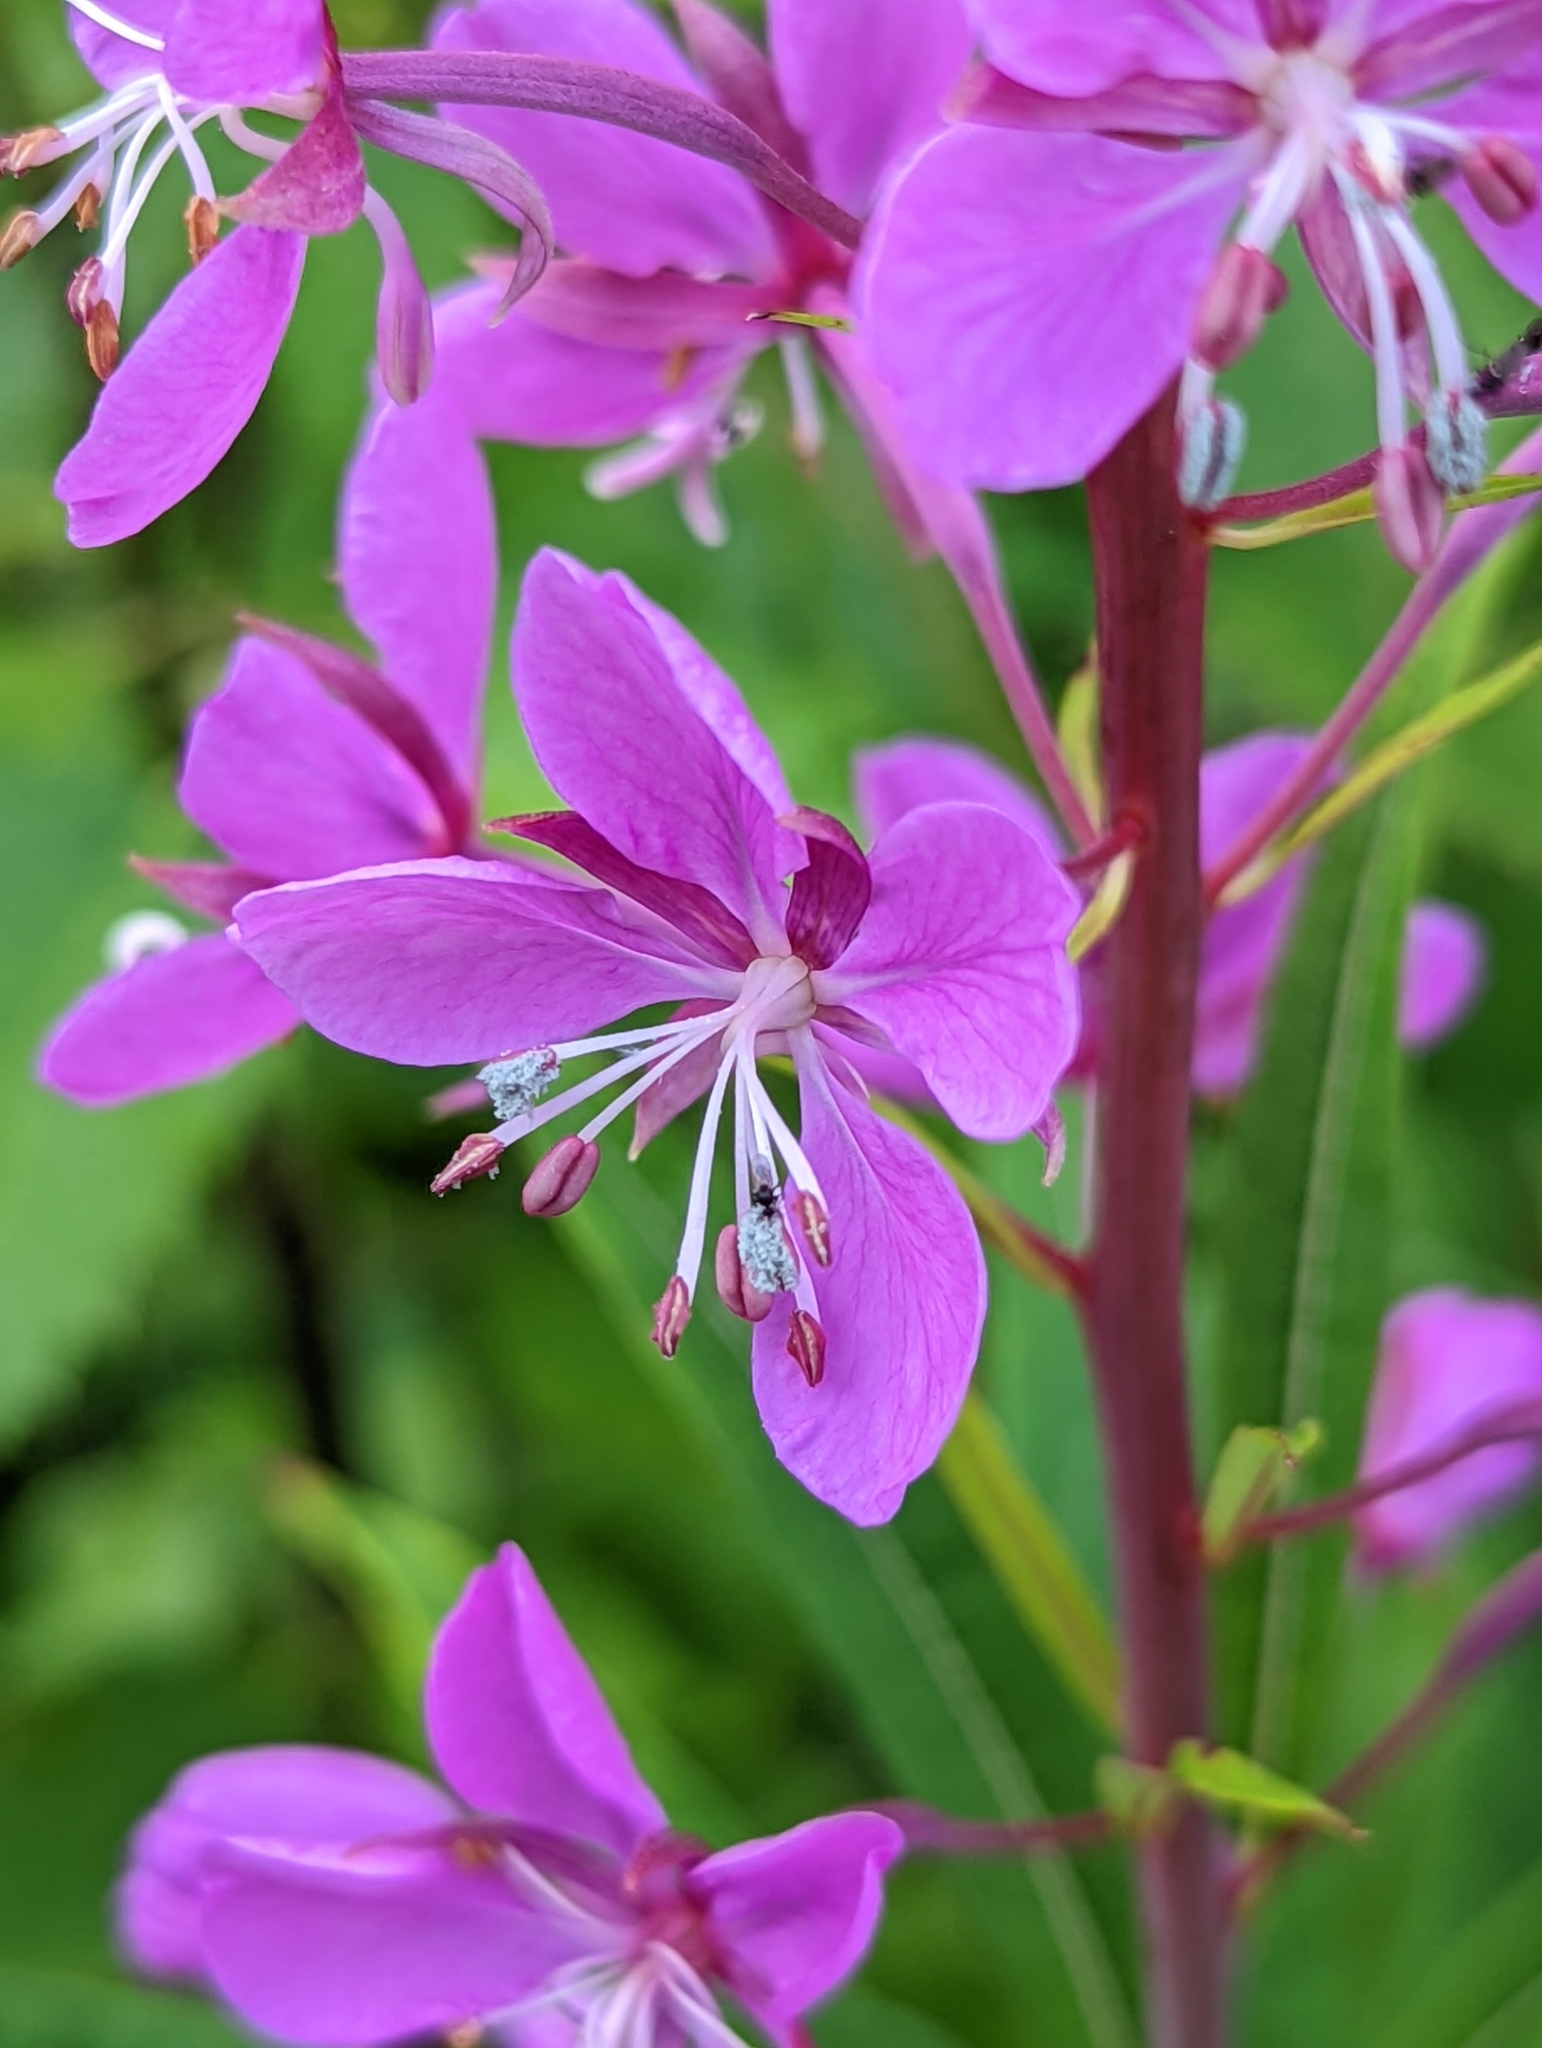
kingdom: Plantae
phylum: Tracheophyta
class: Magnoliopsida
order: Myrtales
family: Onagraceae
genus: Chamaenerion
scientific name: Chamaenerion angustifolium
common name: Fireweed
